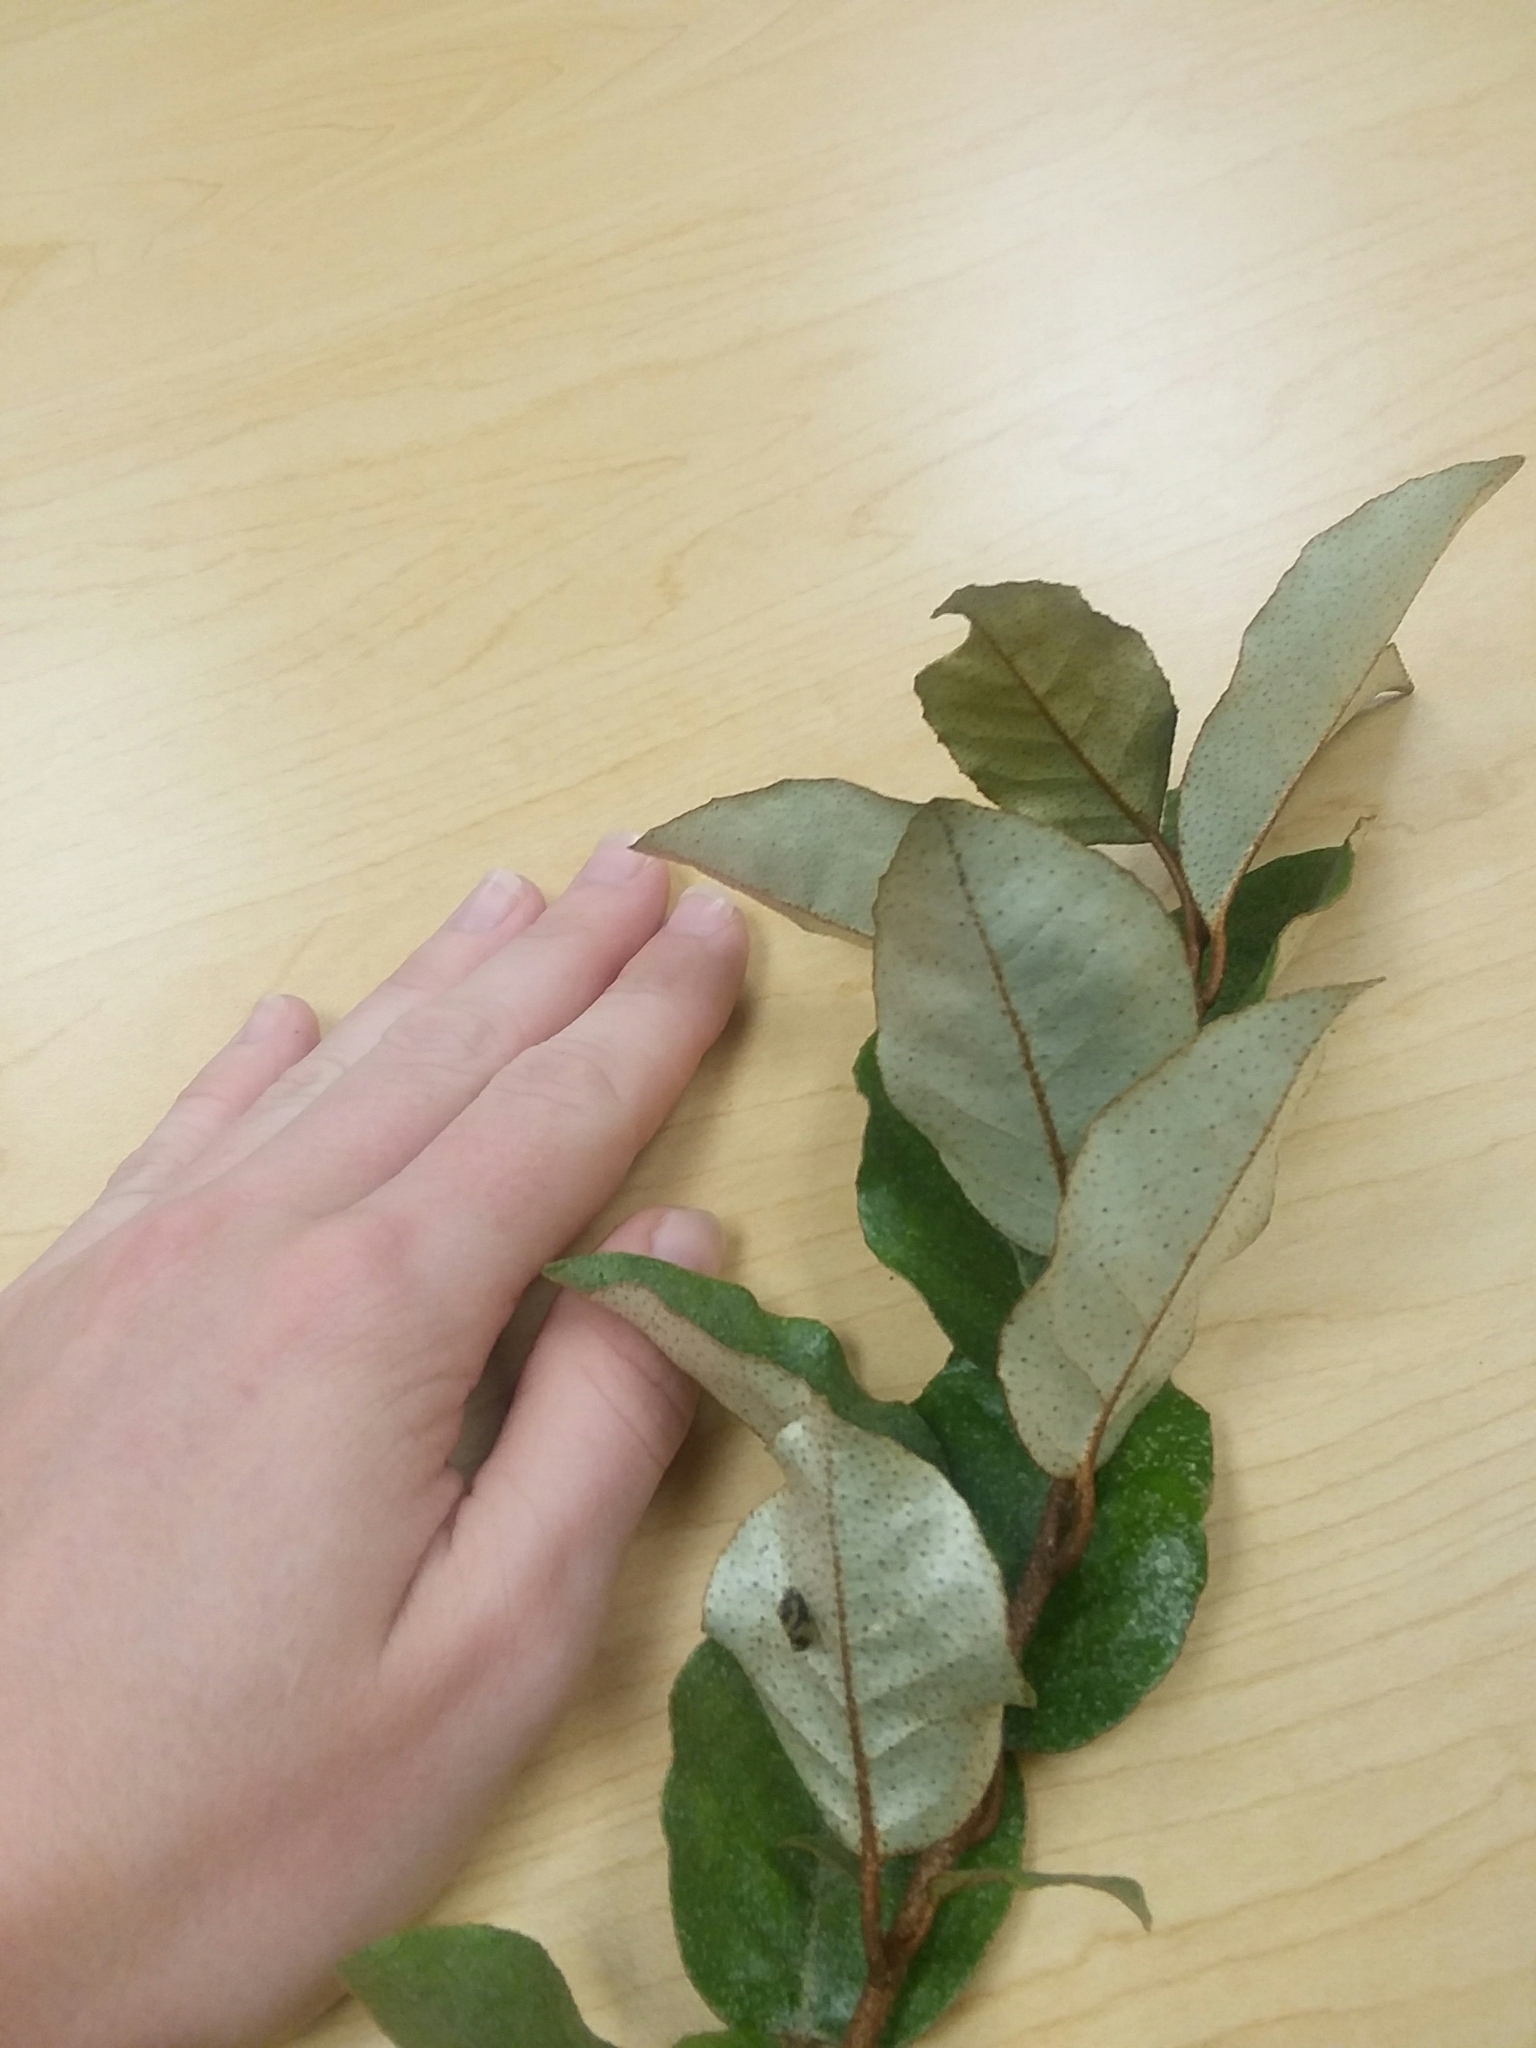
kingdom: Plantae
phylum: Tracheophyta
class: Magnoliopsida
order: Rosales
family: Elaeagnaceae
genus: Elaeagnus
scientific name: Elaeagnus pungens
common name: Spiny oleaster
